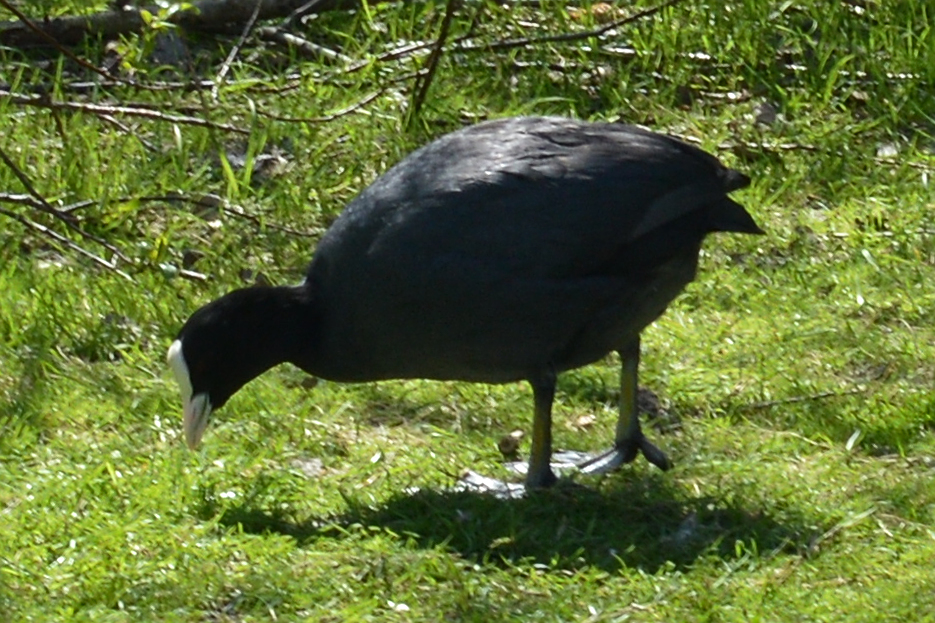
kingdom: Animalia
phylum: Chordata
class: Aves
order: Gruiformes
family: Rallidae
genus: Fulica
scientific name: Fulica atra
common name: Eurasian coot
